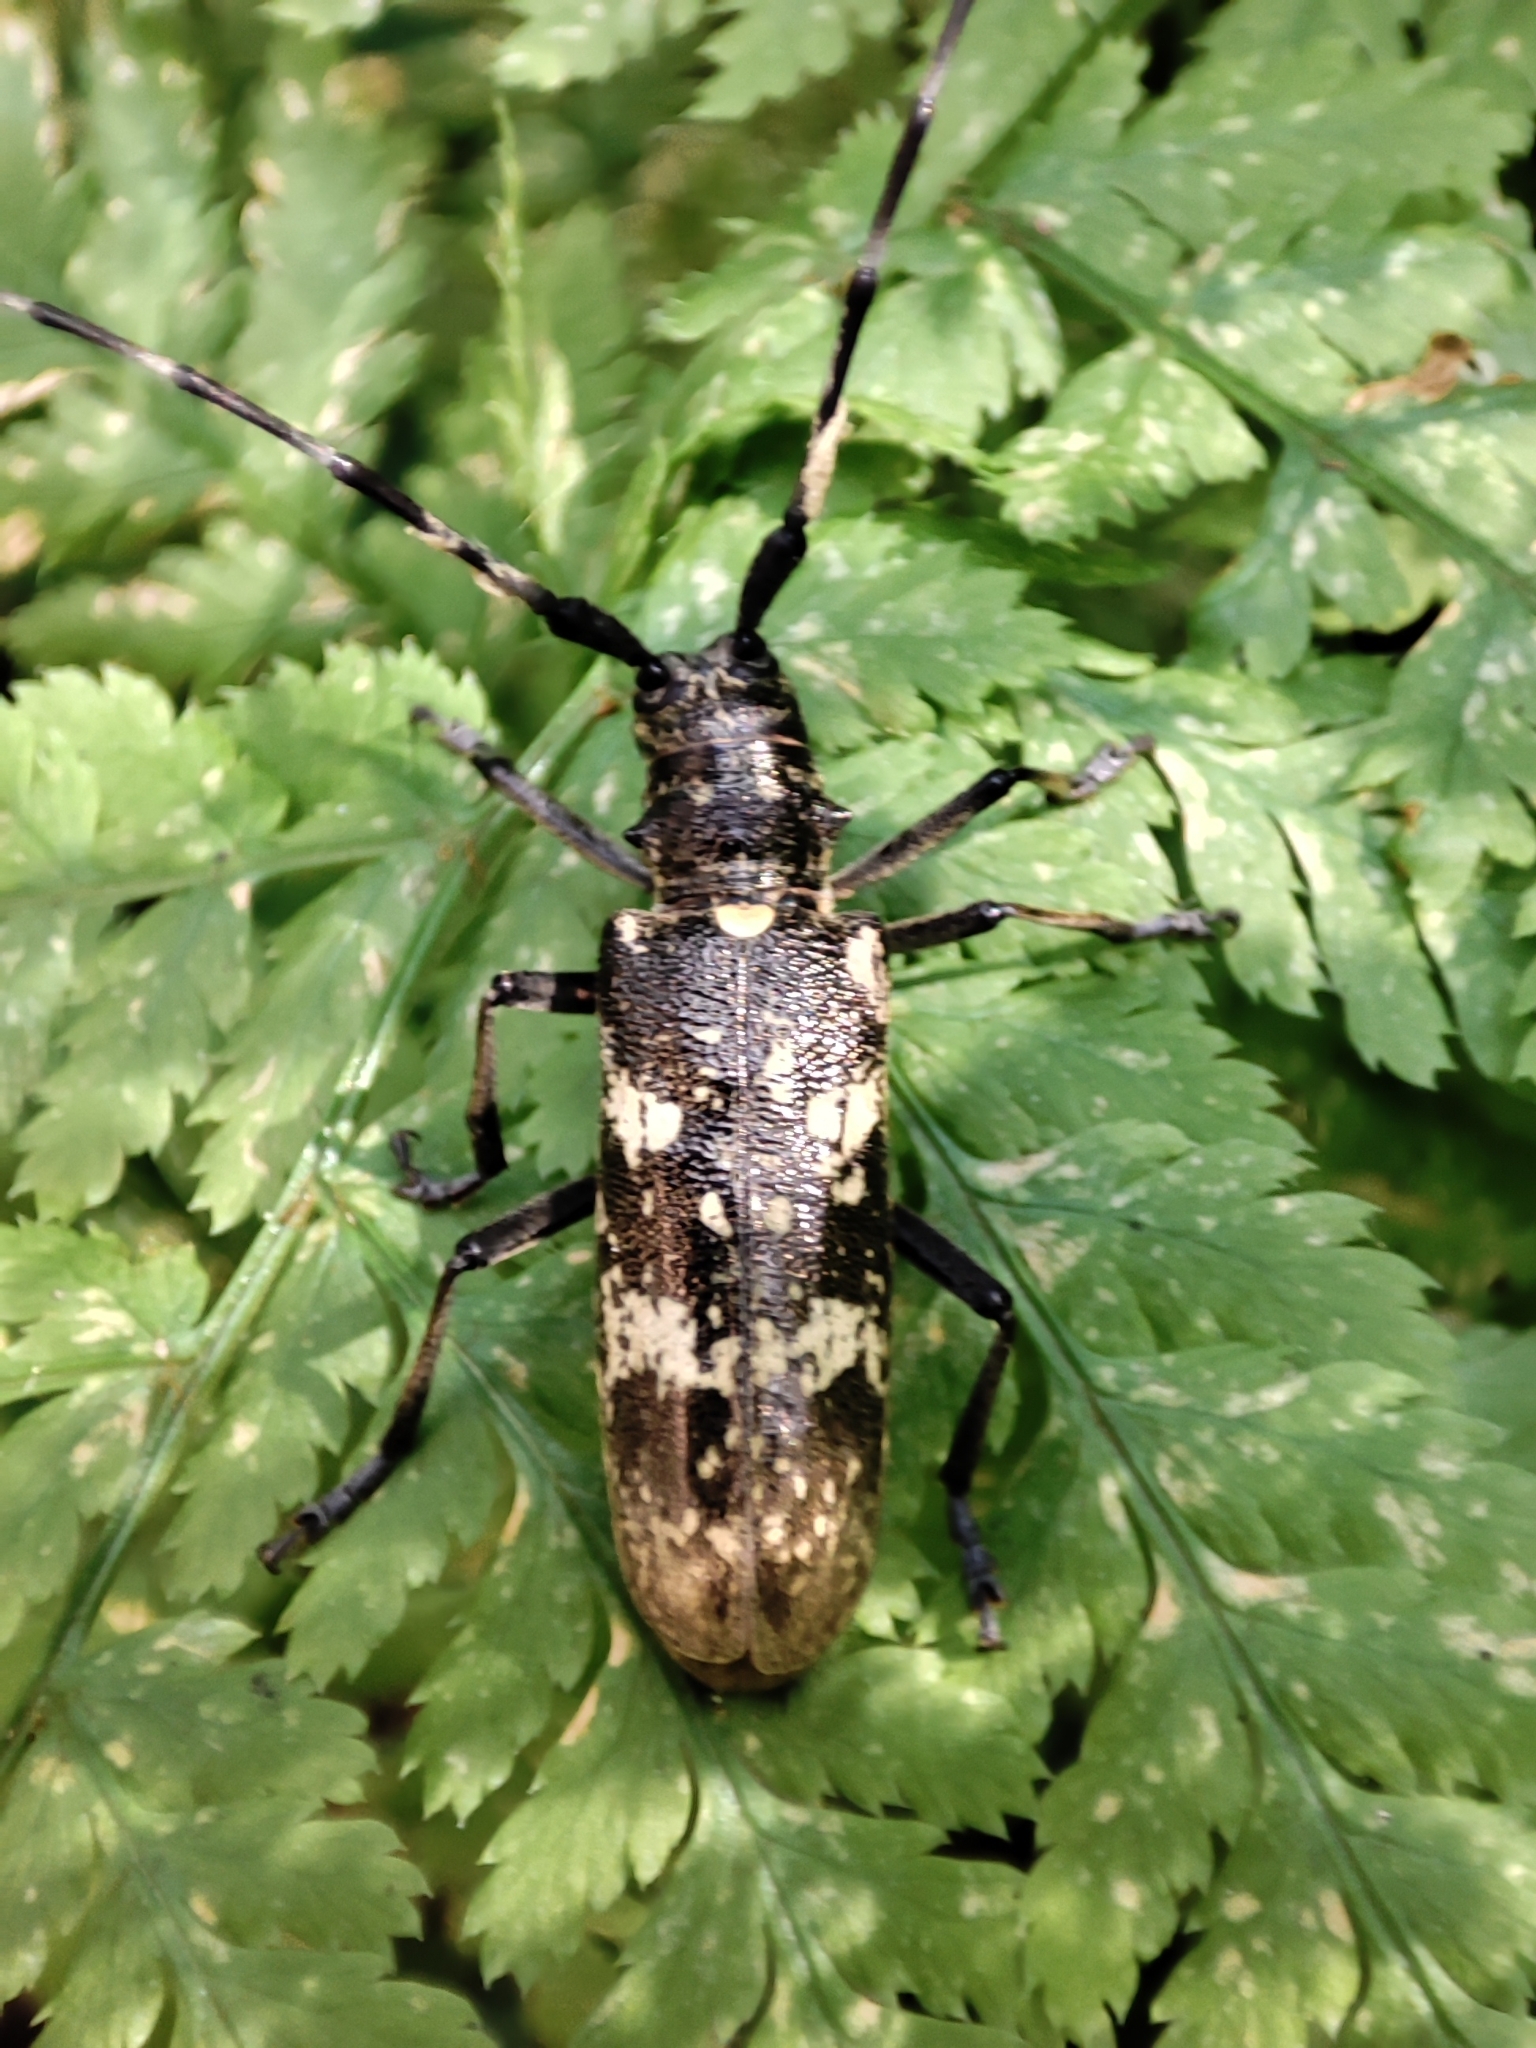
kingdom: Animalia
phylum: Arthropoda
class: Insecta
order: Coleoptera
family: Cerambycidae
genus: Monochamus
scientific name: Monochamus sartor
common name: Pine sawyer
